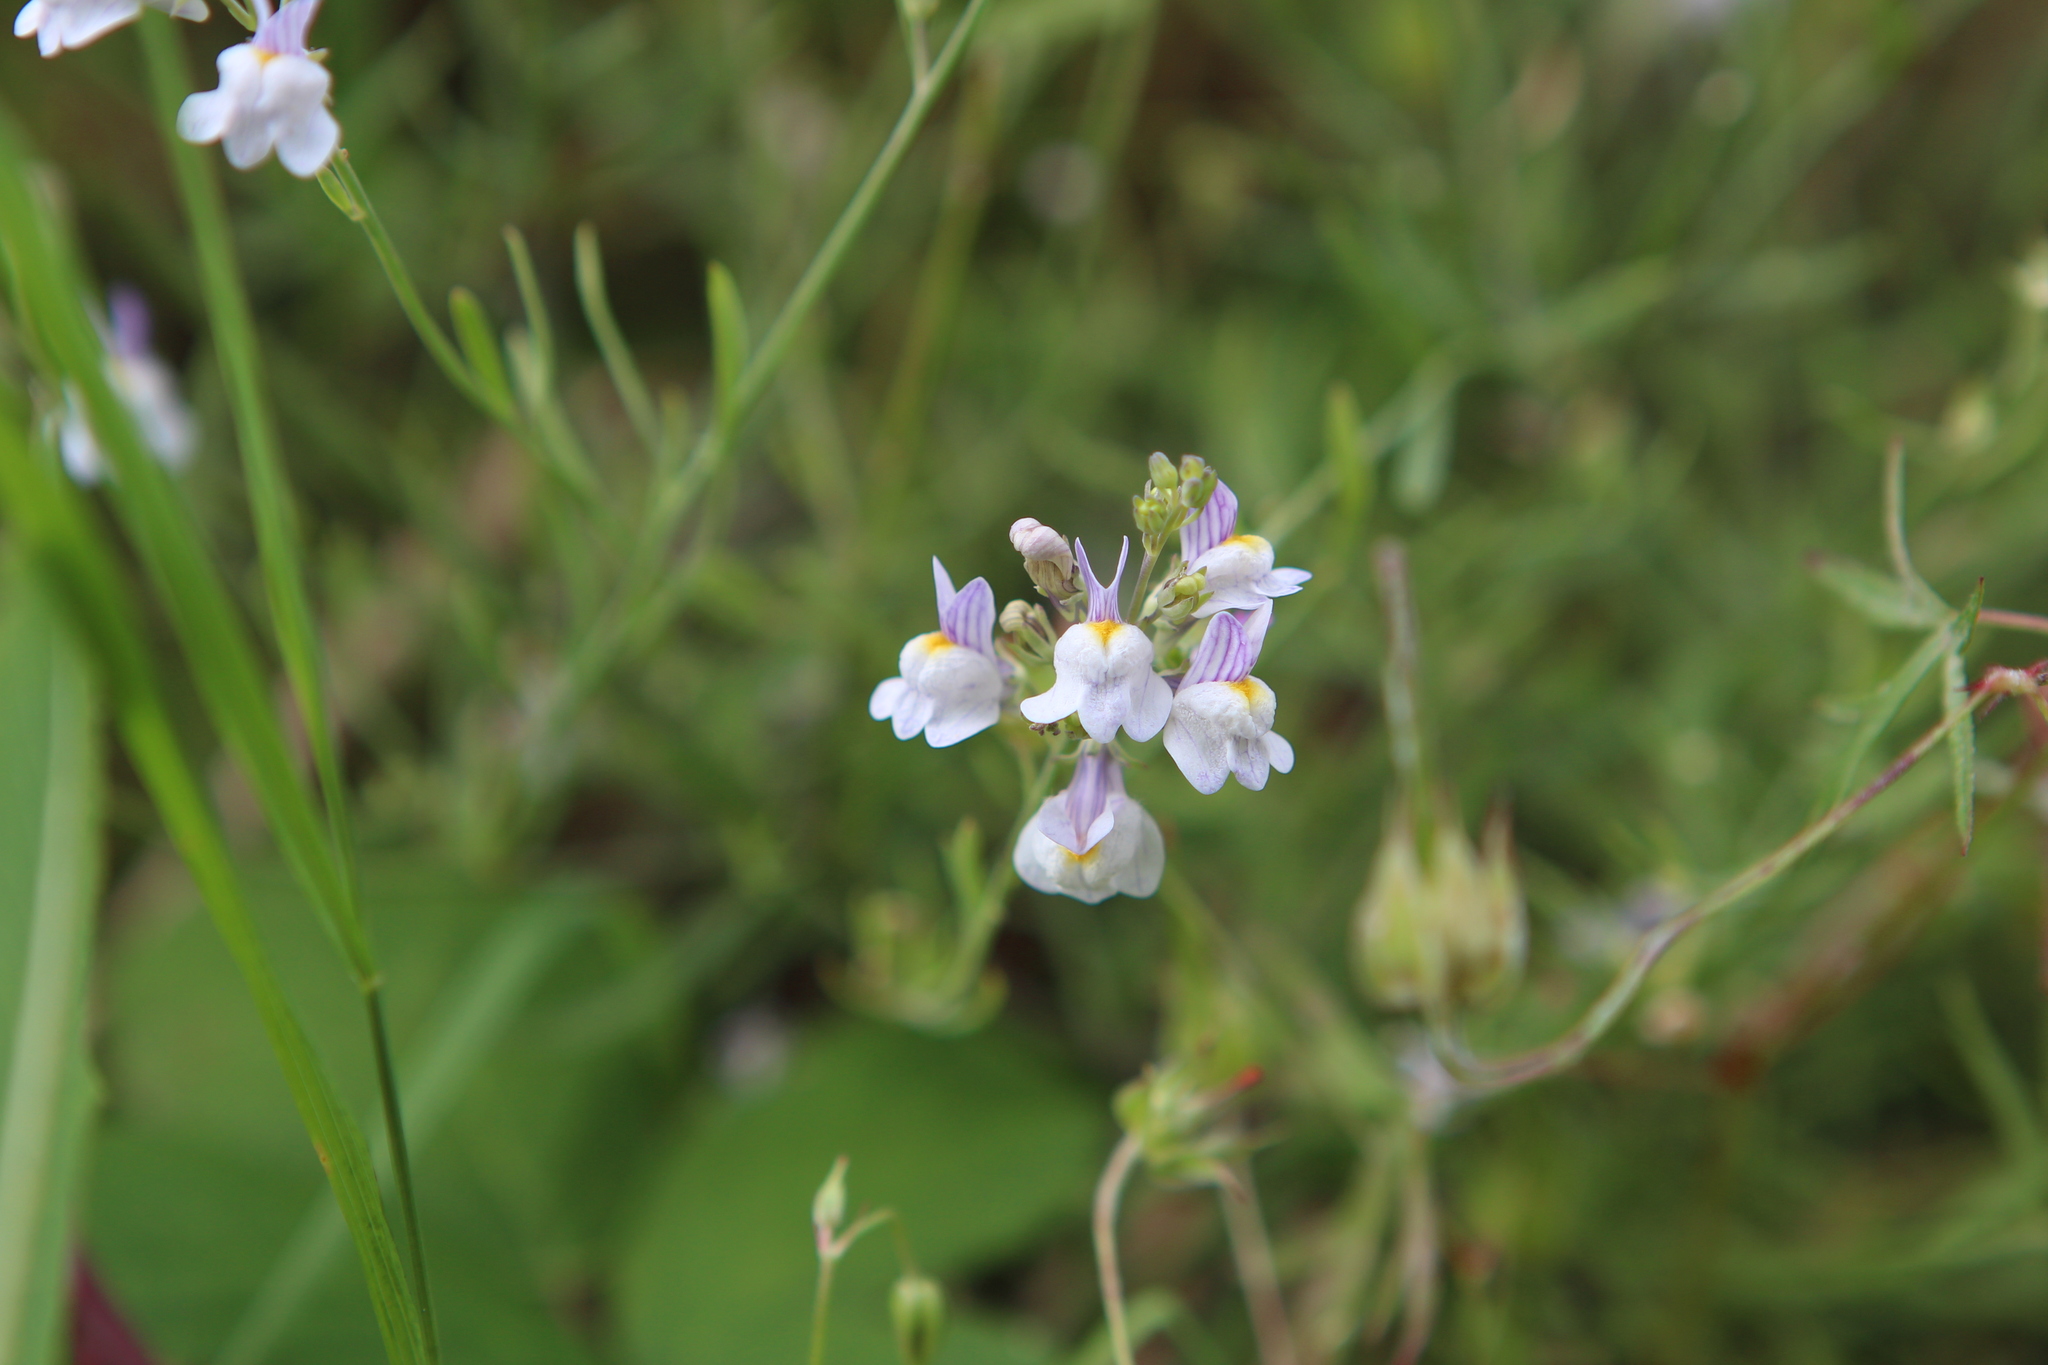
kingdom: Plantae
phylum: Tracheophyta
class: Magnoliopsida
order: Lamiales
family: Plantaginaceae
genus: Linaria
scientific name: Linaria repens
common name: Pale toadflax
